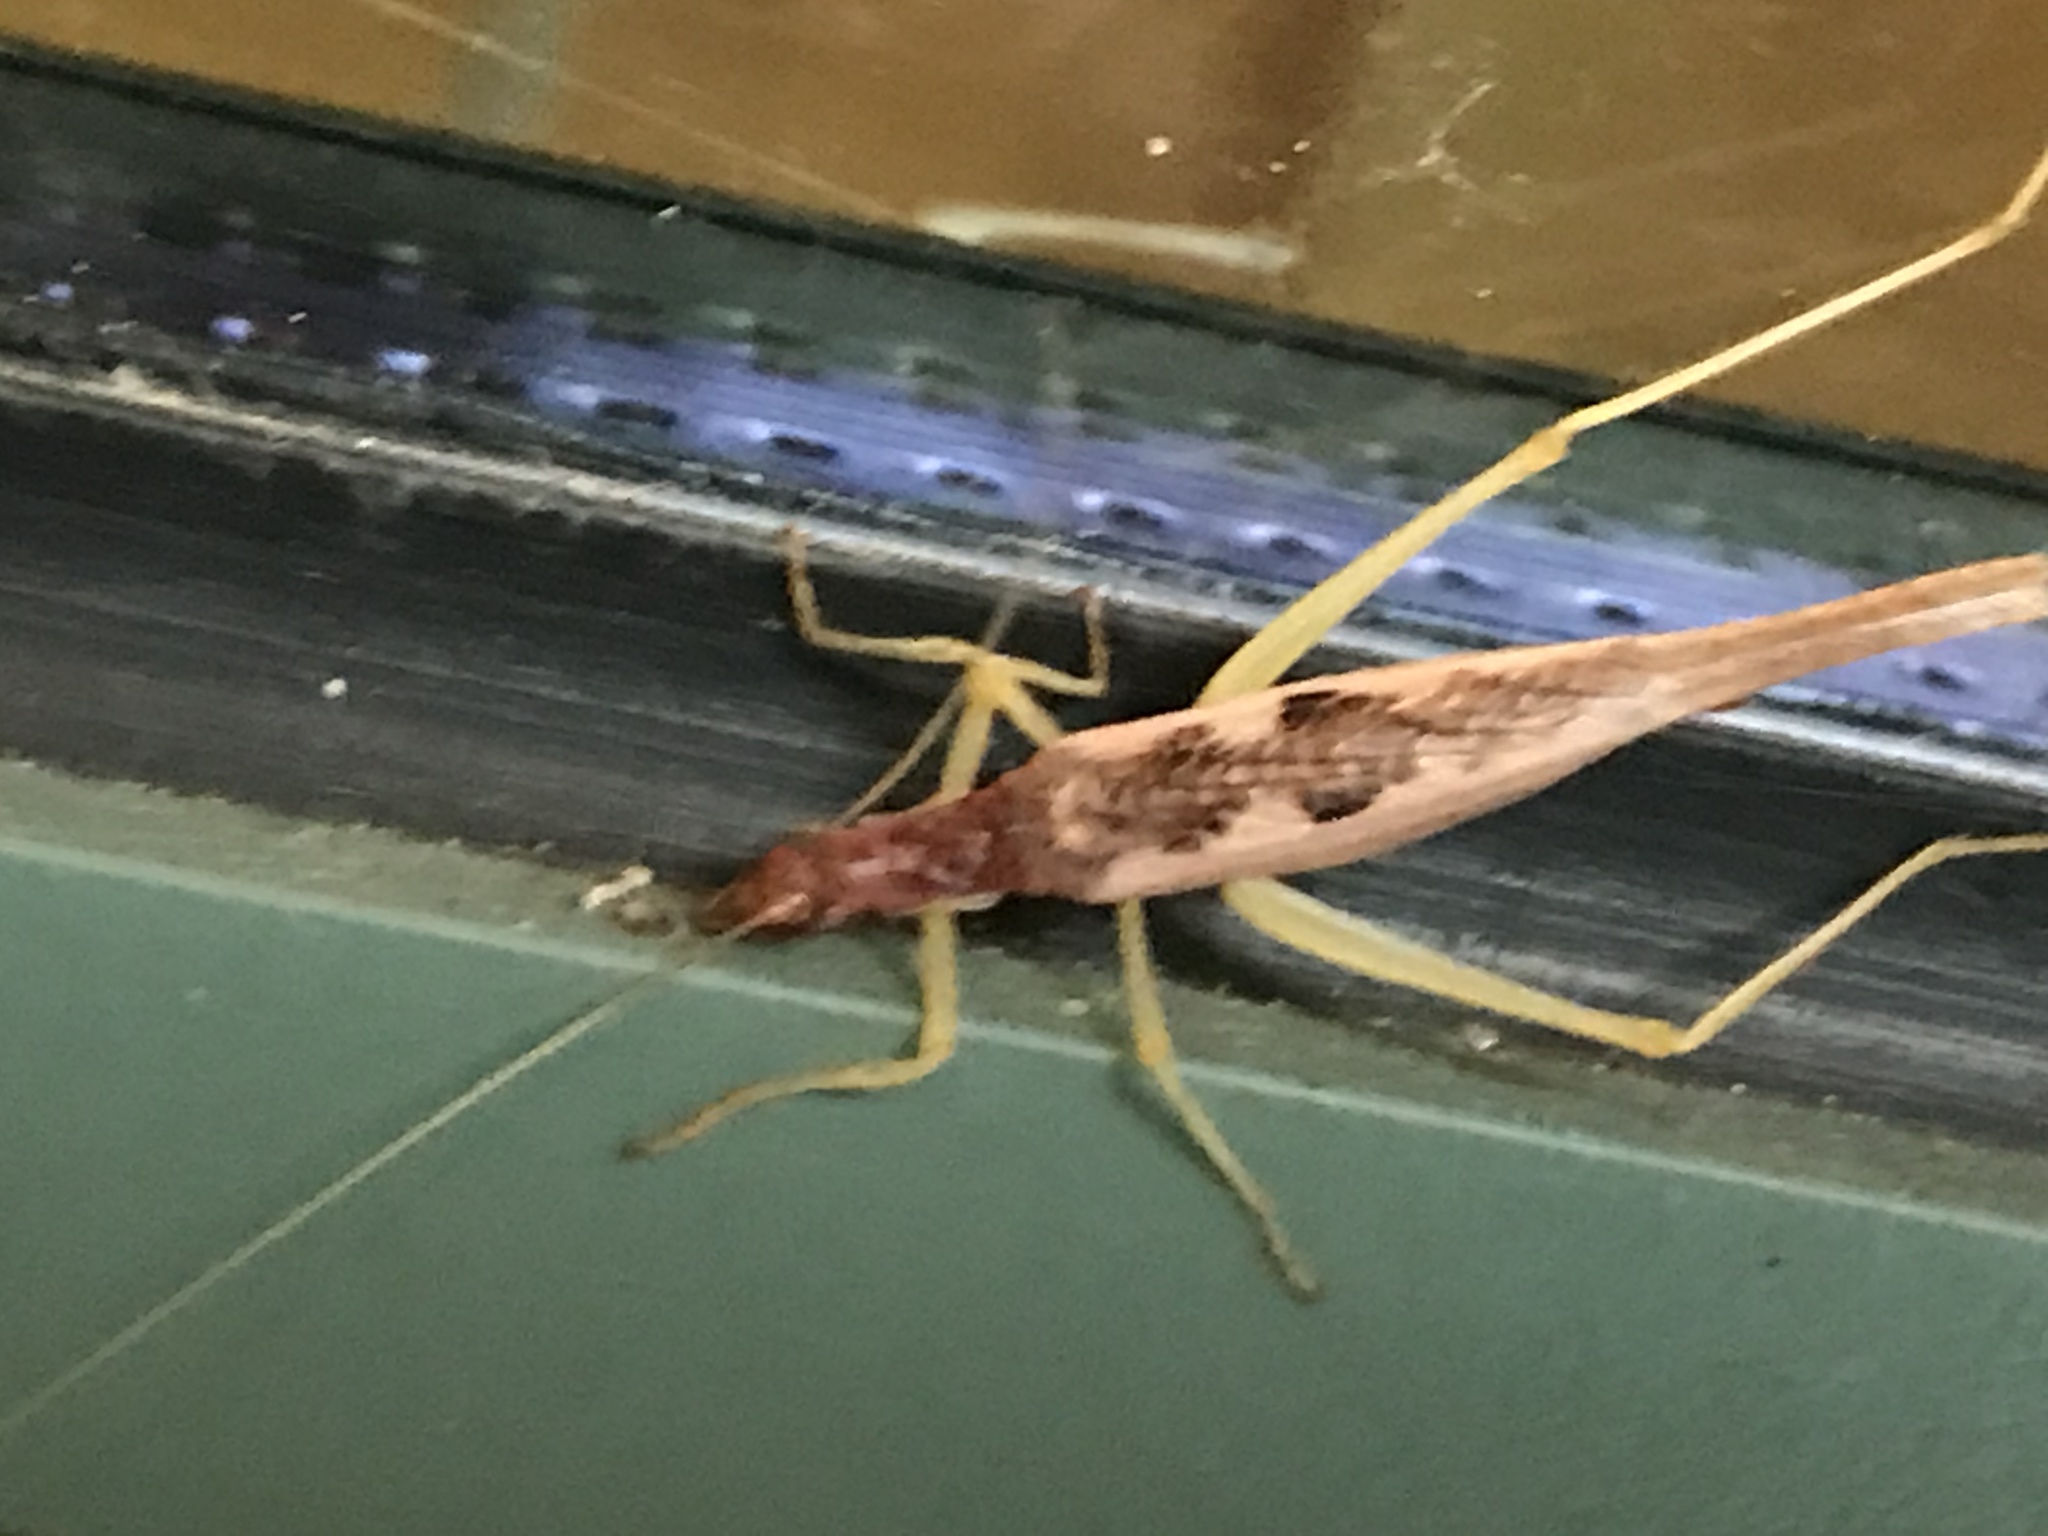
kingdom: Animalia
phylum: Arthropoda
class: Insecta
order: Orthoptera
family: Gryllidae
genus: Neoxabea
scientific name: Neoxabea bipunctata
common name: Two-spotted tree cricket
